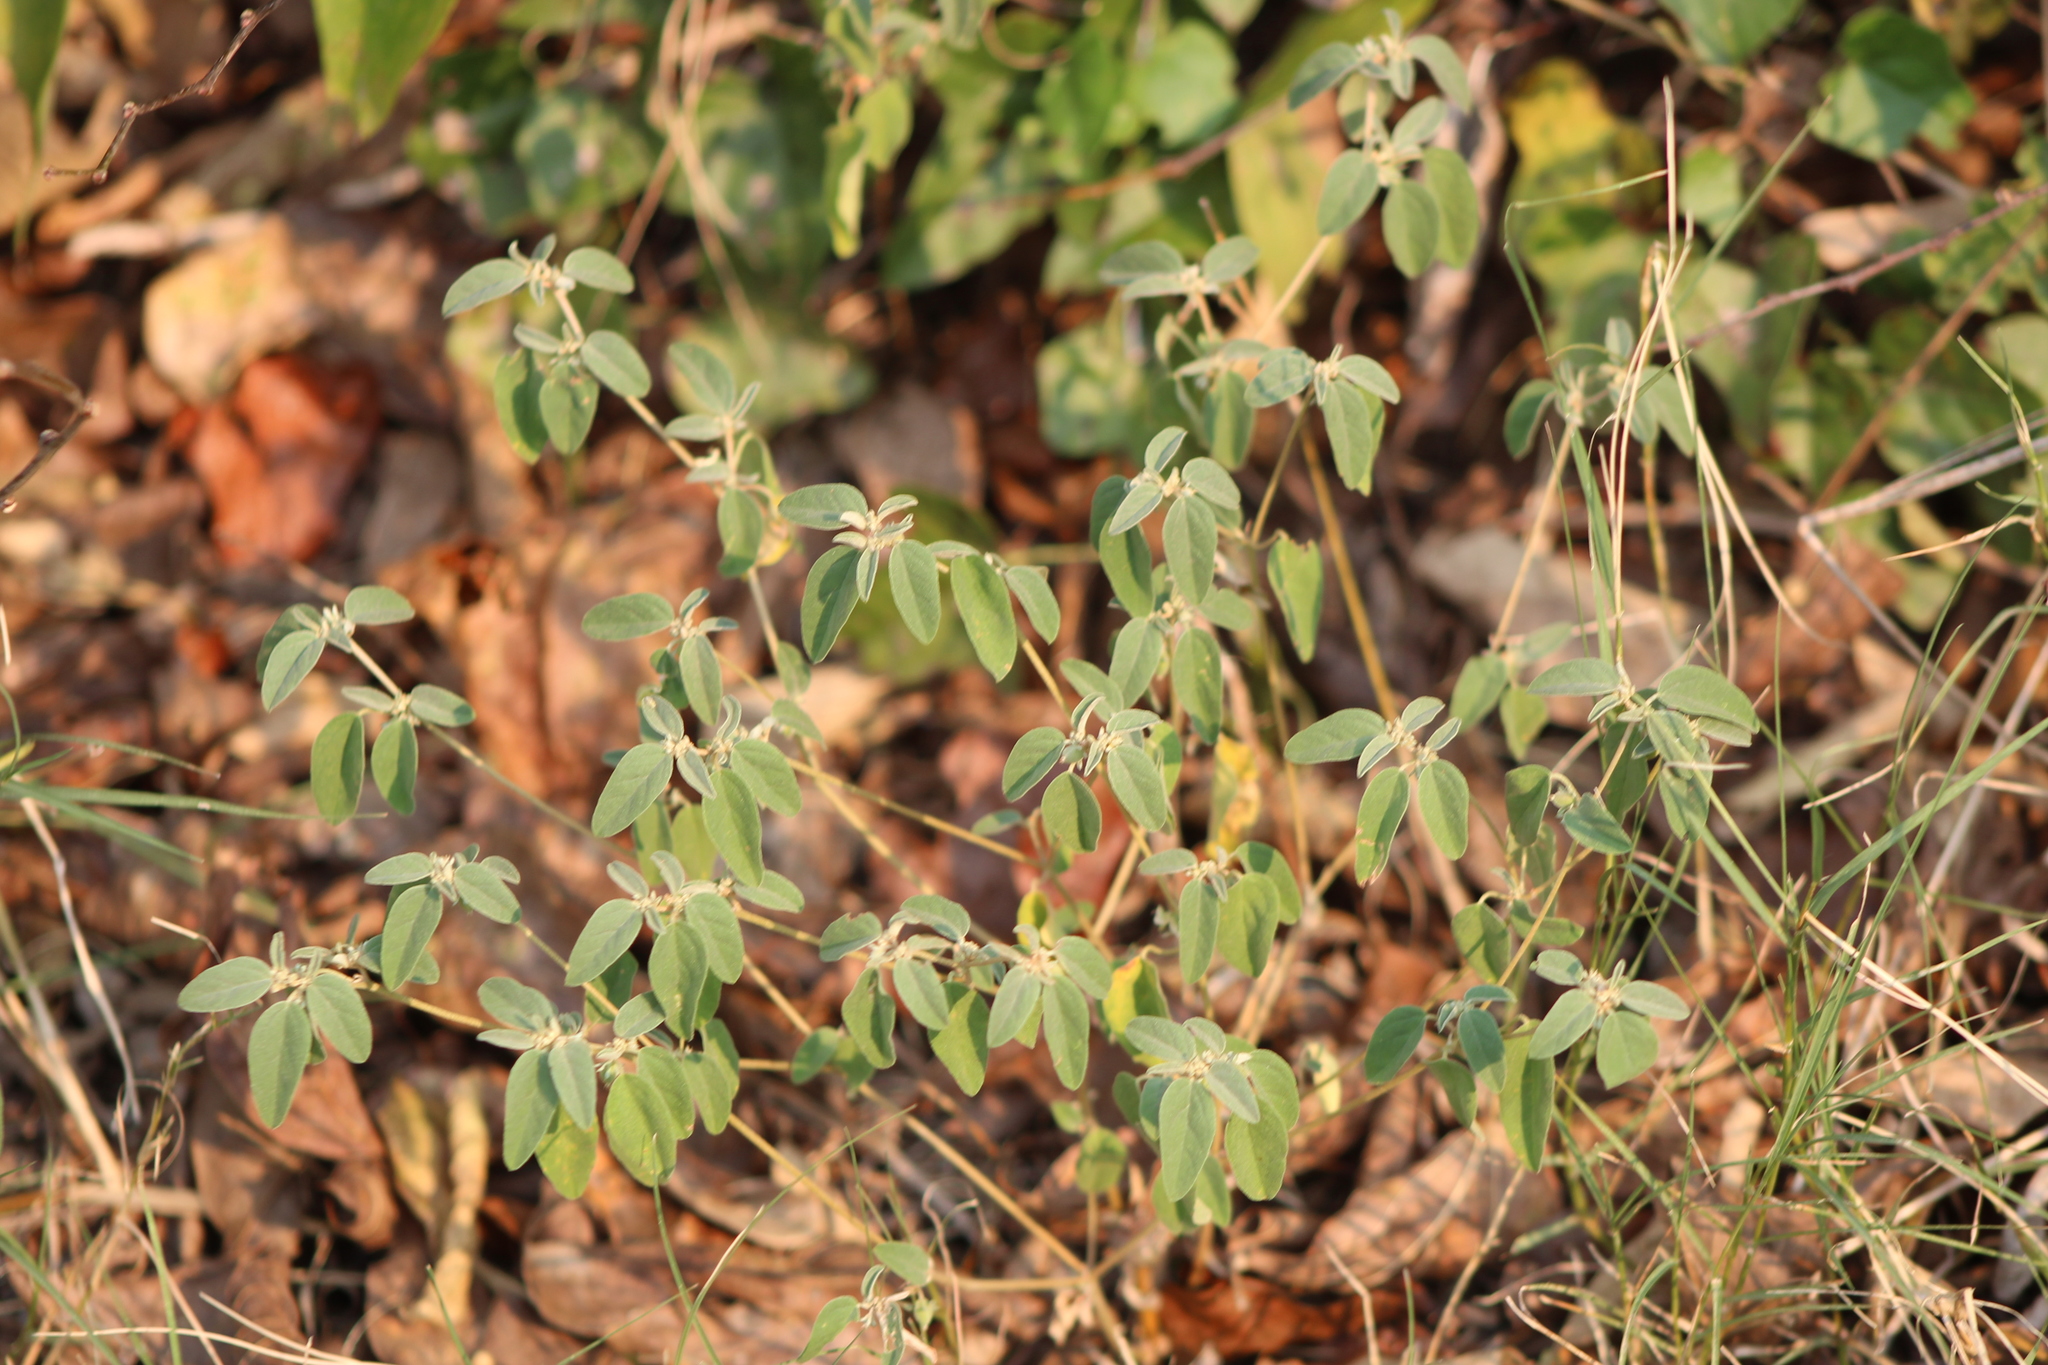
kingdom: Plantae
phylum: Tracheophyta
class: Magnoliopsida
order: Malpighiales
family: Euphorbiaceae
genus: Croton
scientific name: Croton monanthogynus
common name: One-seed croton
